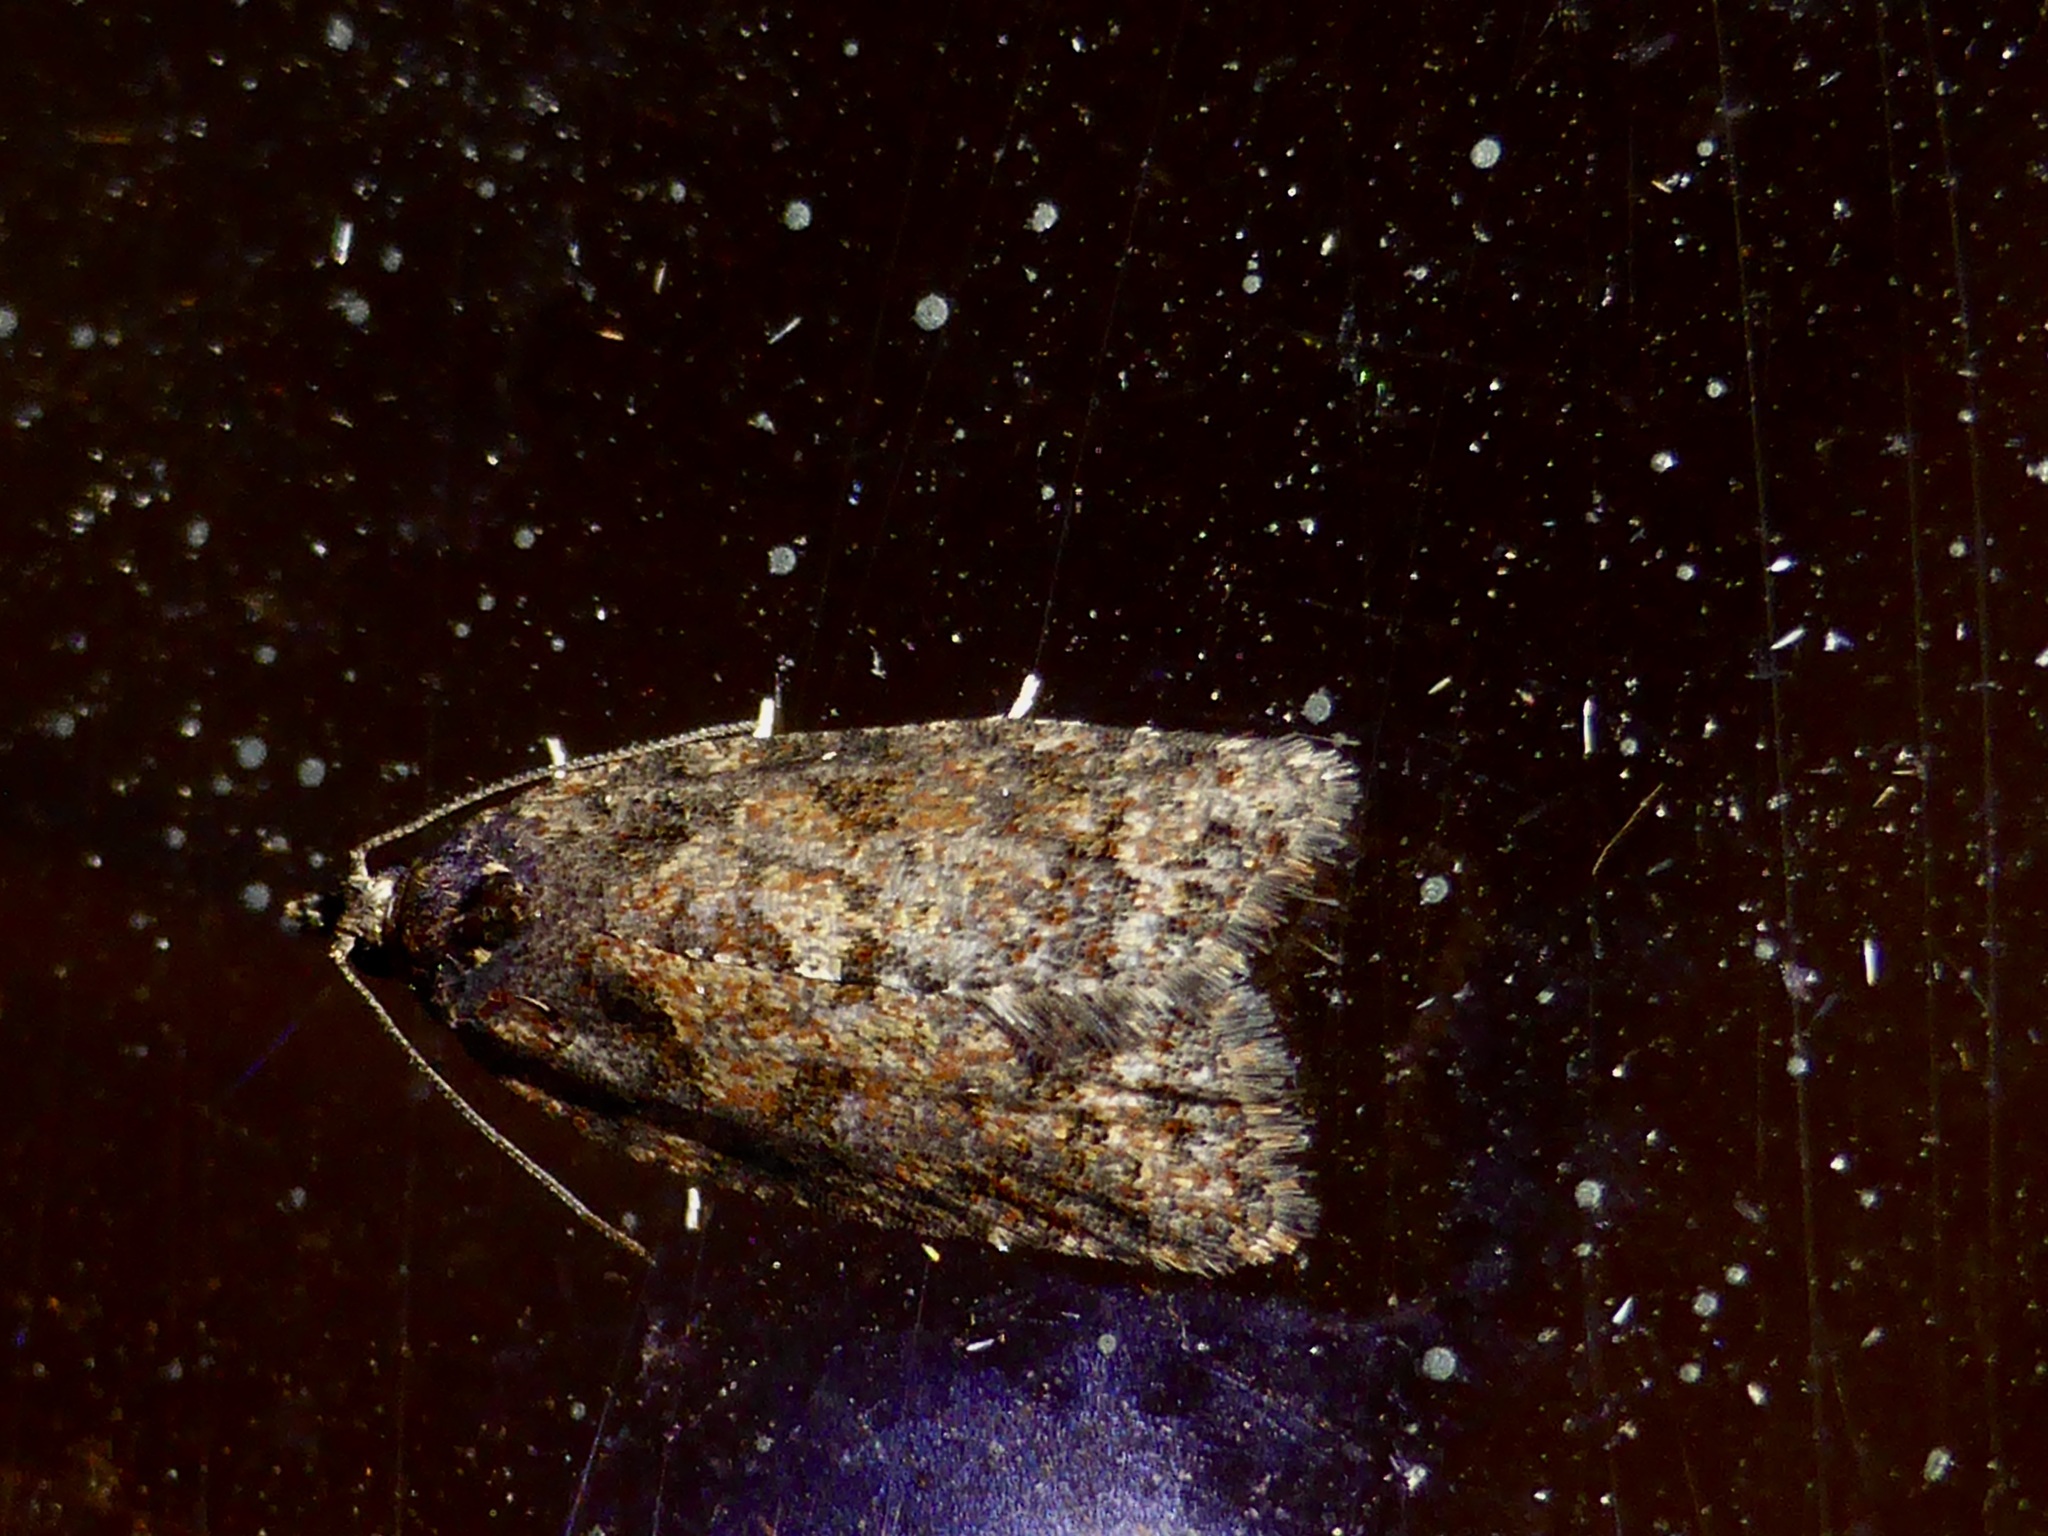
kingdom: Animalia
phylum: Arthropoda
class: Insecta
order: Lepidoptera
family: Tortricidae
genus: Capua
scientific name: Capua intractana
